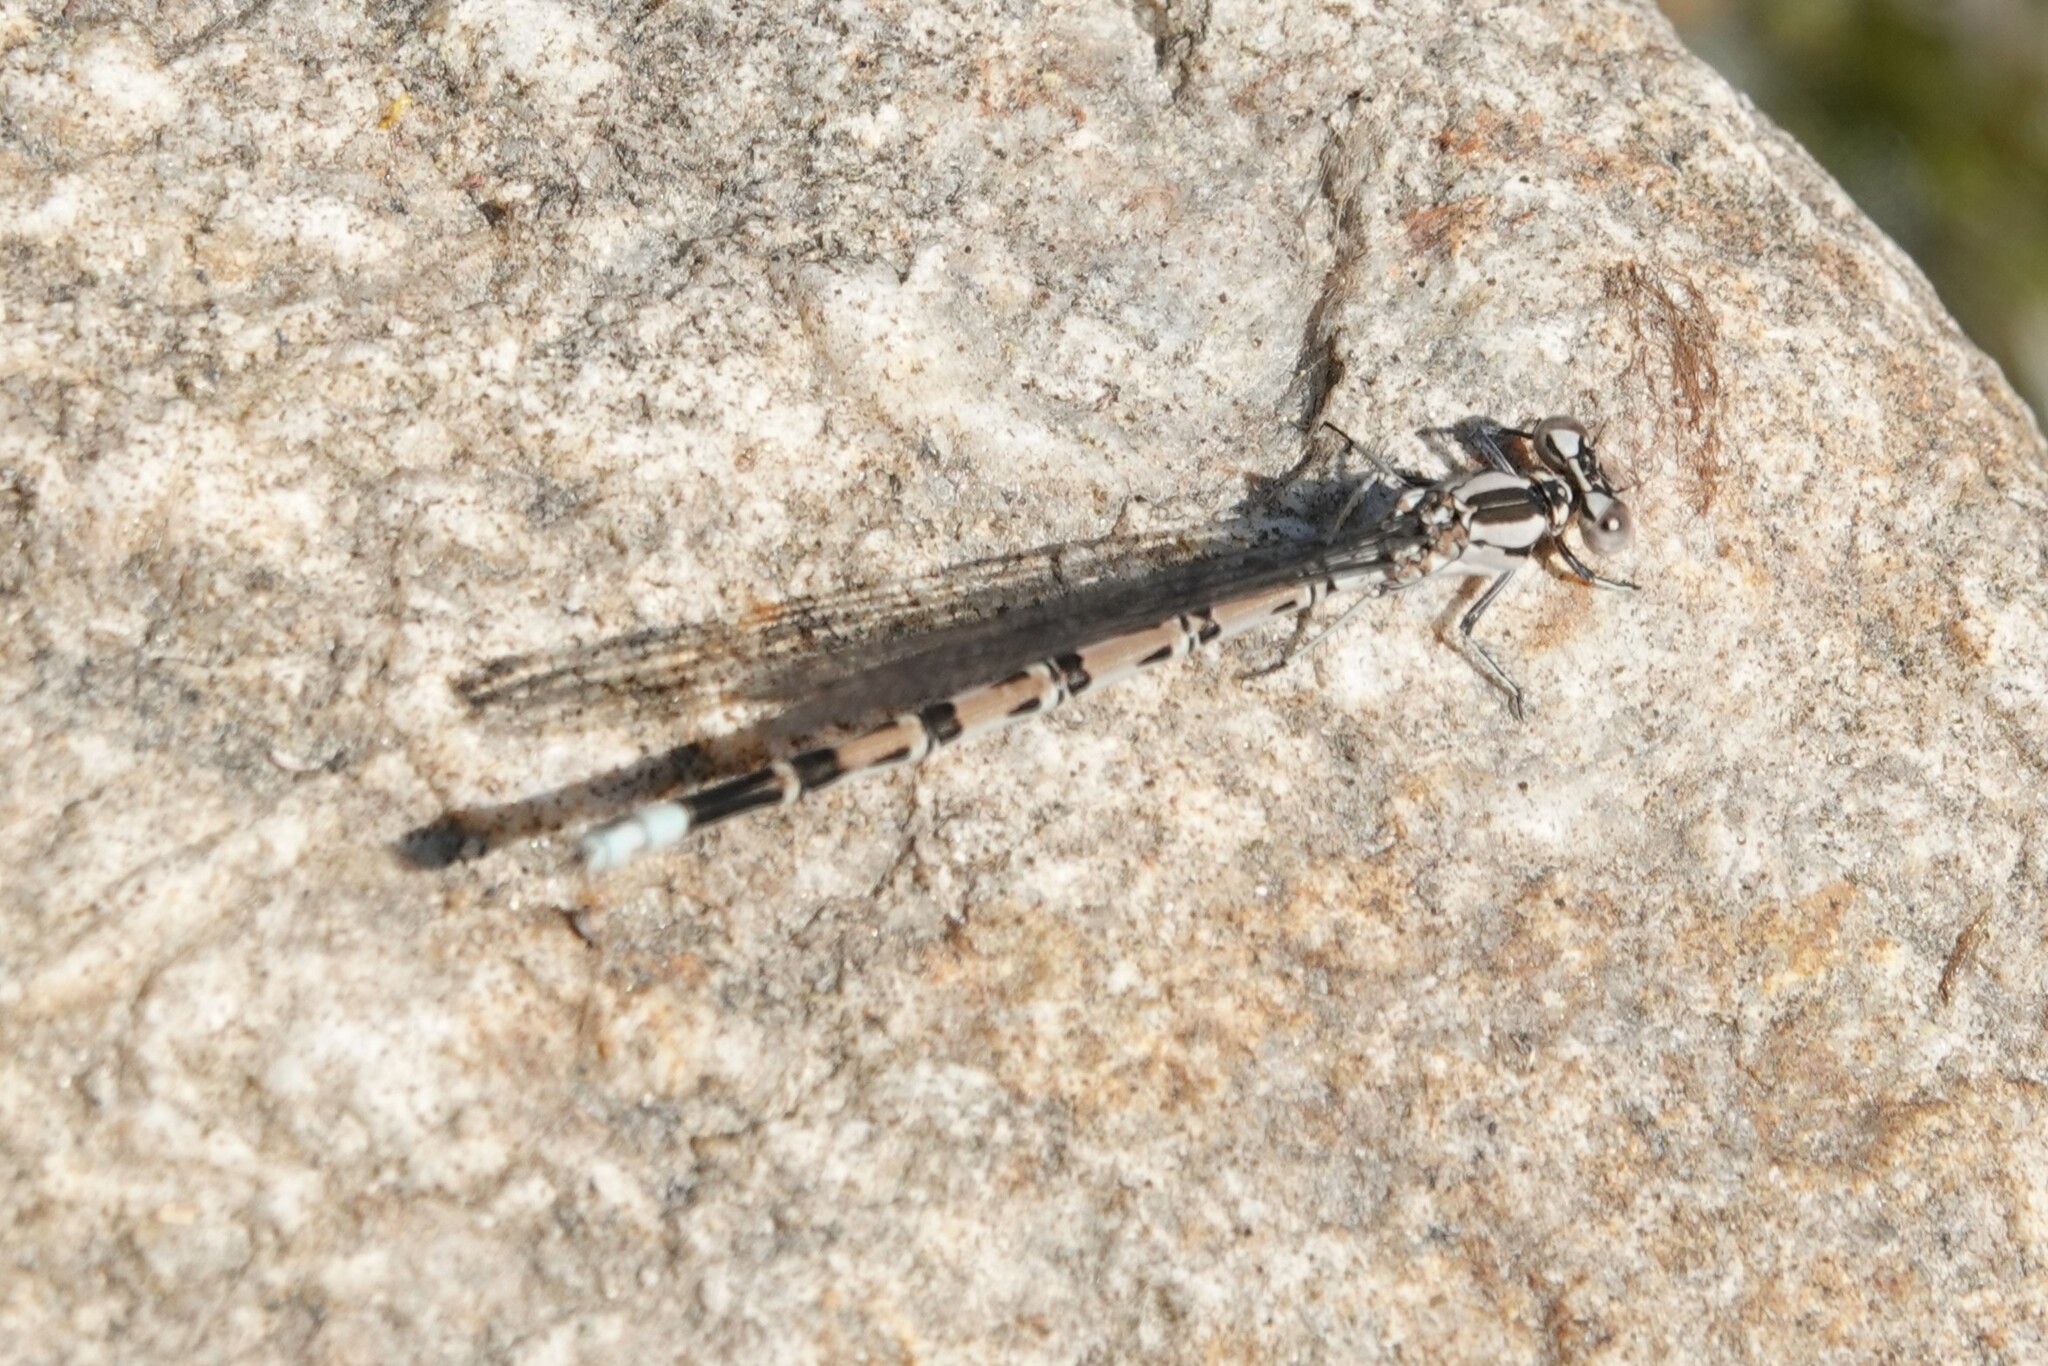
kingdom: Animalia
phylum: Arthropoda
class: Insecta
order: Odonata
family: Coenagrionidae
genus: Argia
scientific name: Argia vivida
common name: Vivid dancer
